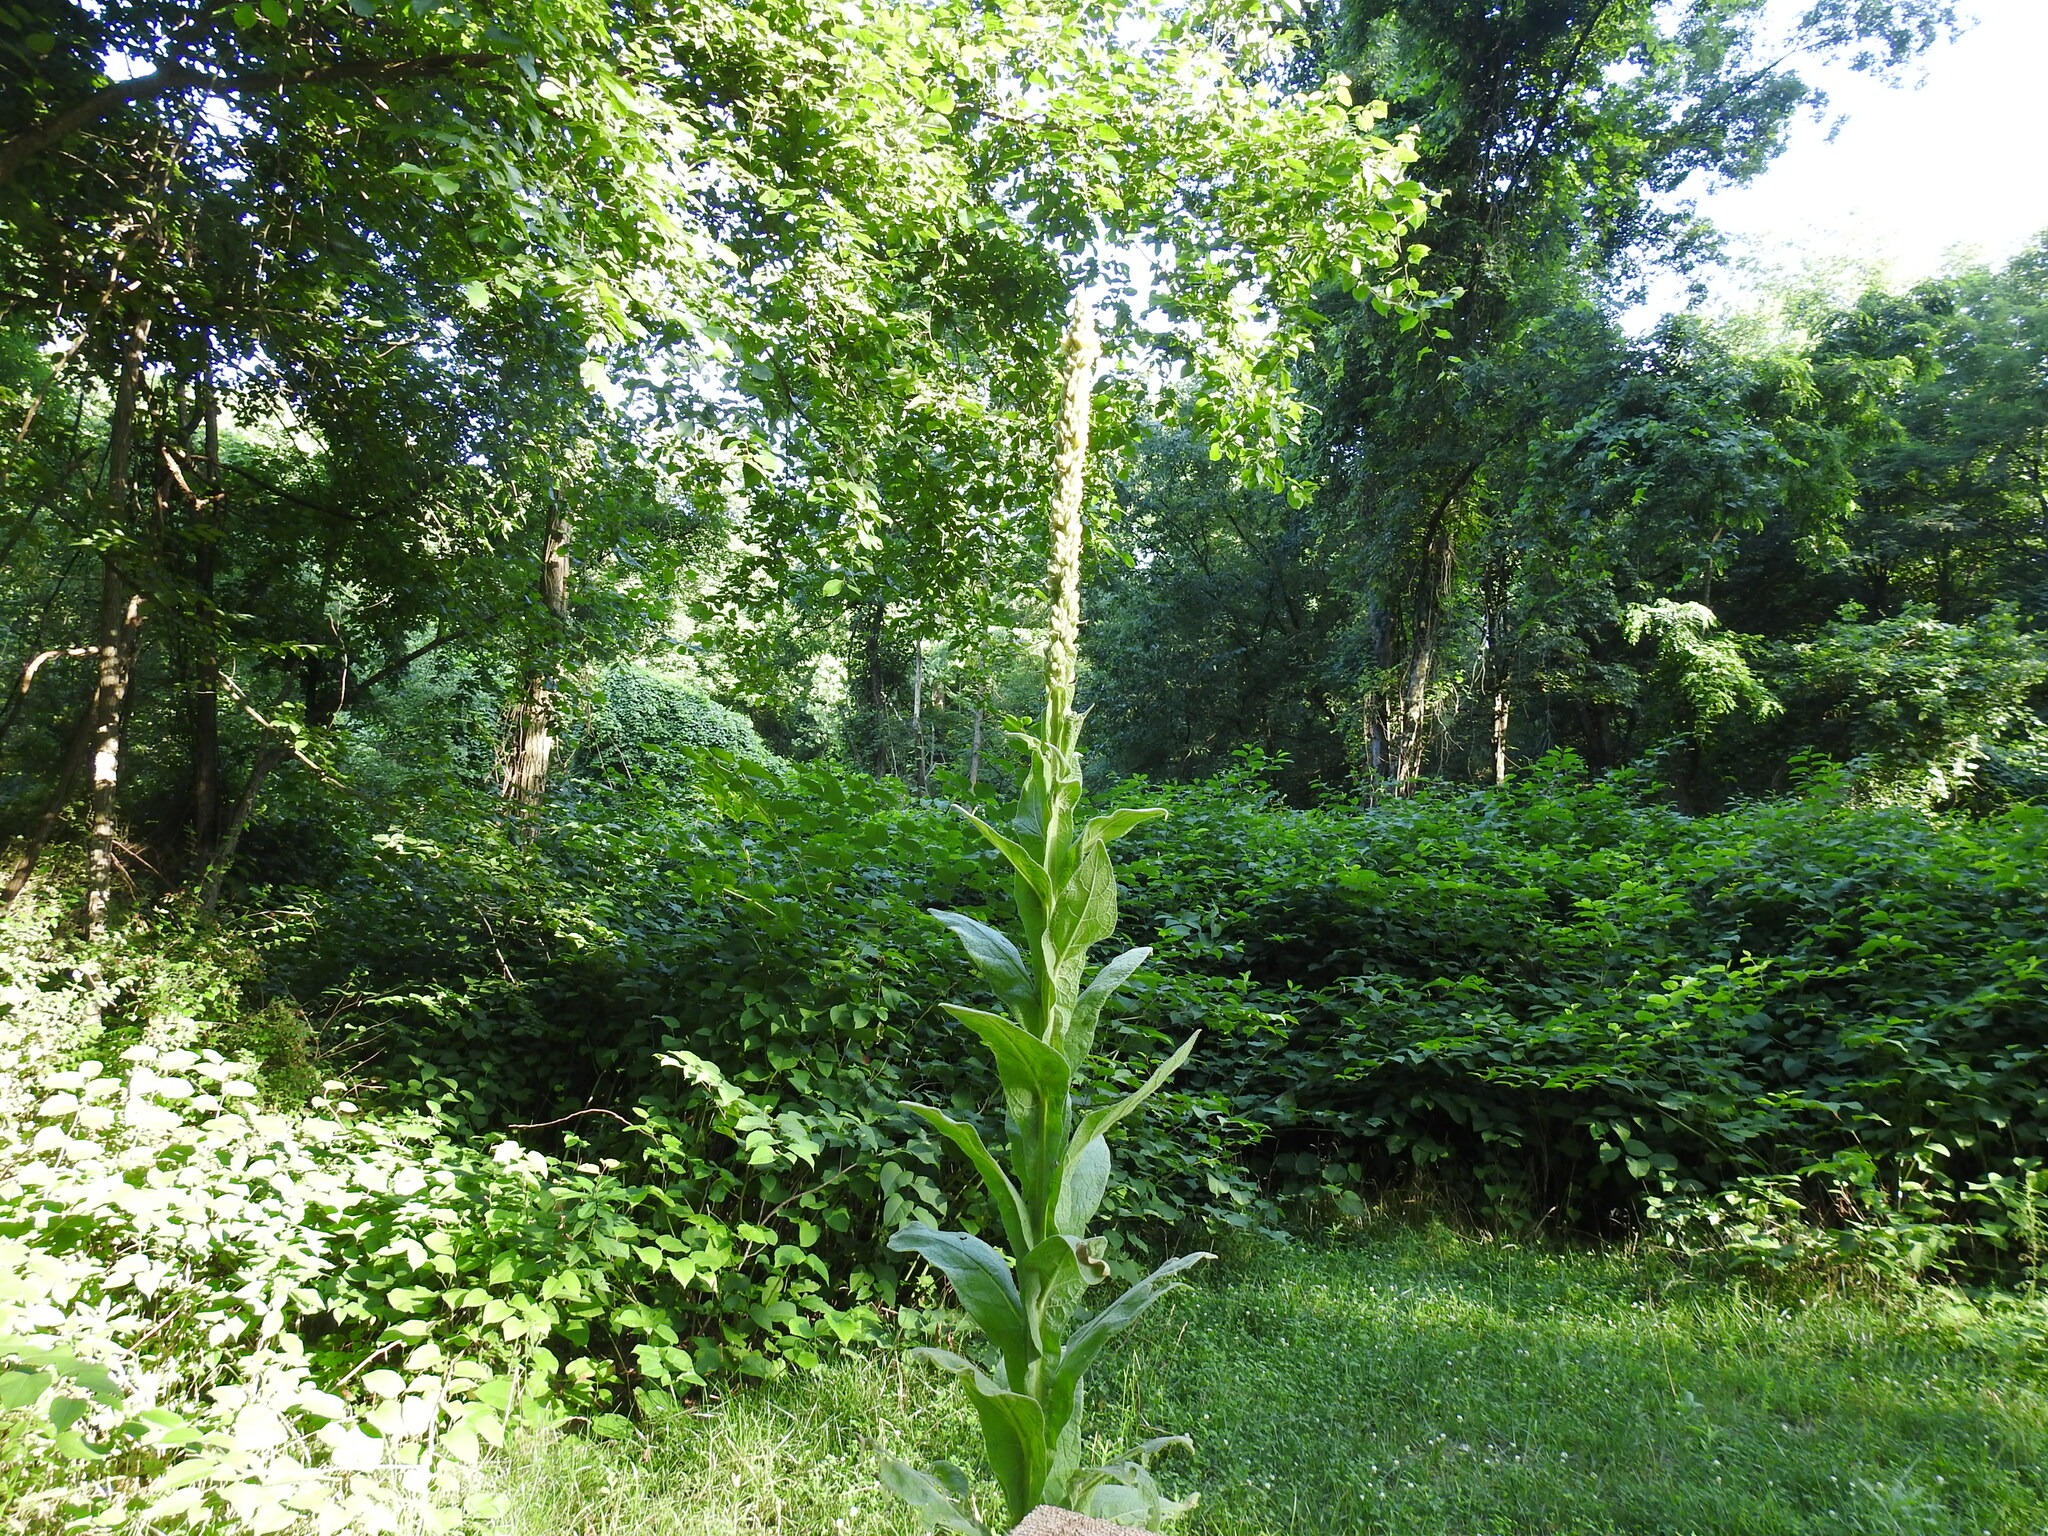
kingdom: Plantae
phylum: Tracheophyta
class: Magnoliopsida
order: Lamiales
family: Scrophulariaceae
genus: Verbascum
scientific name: Verbascum thapsus
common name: Common mullein
